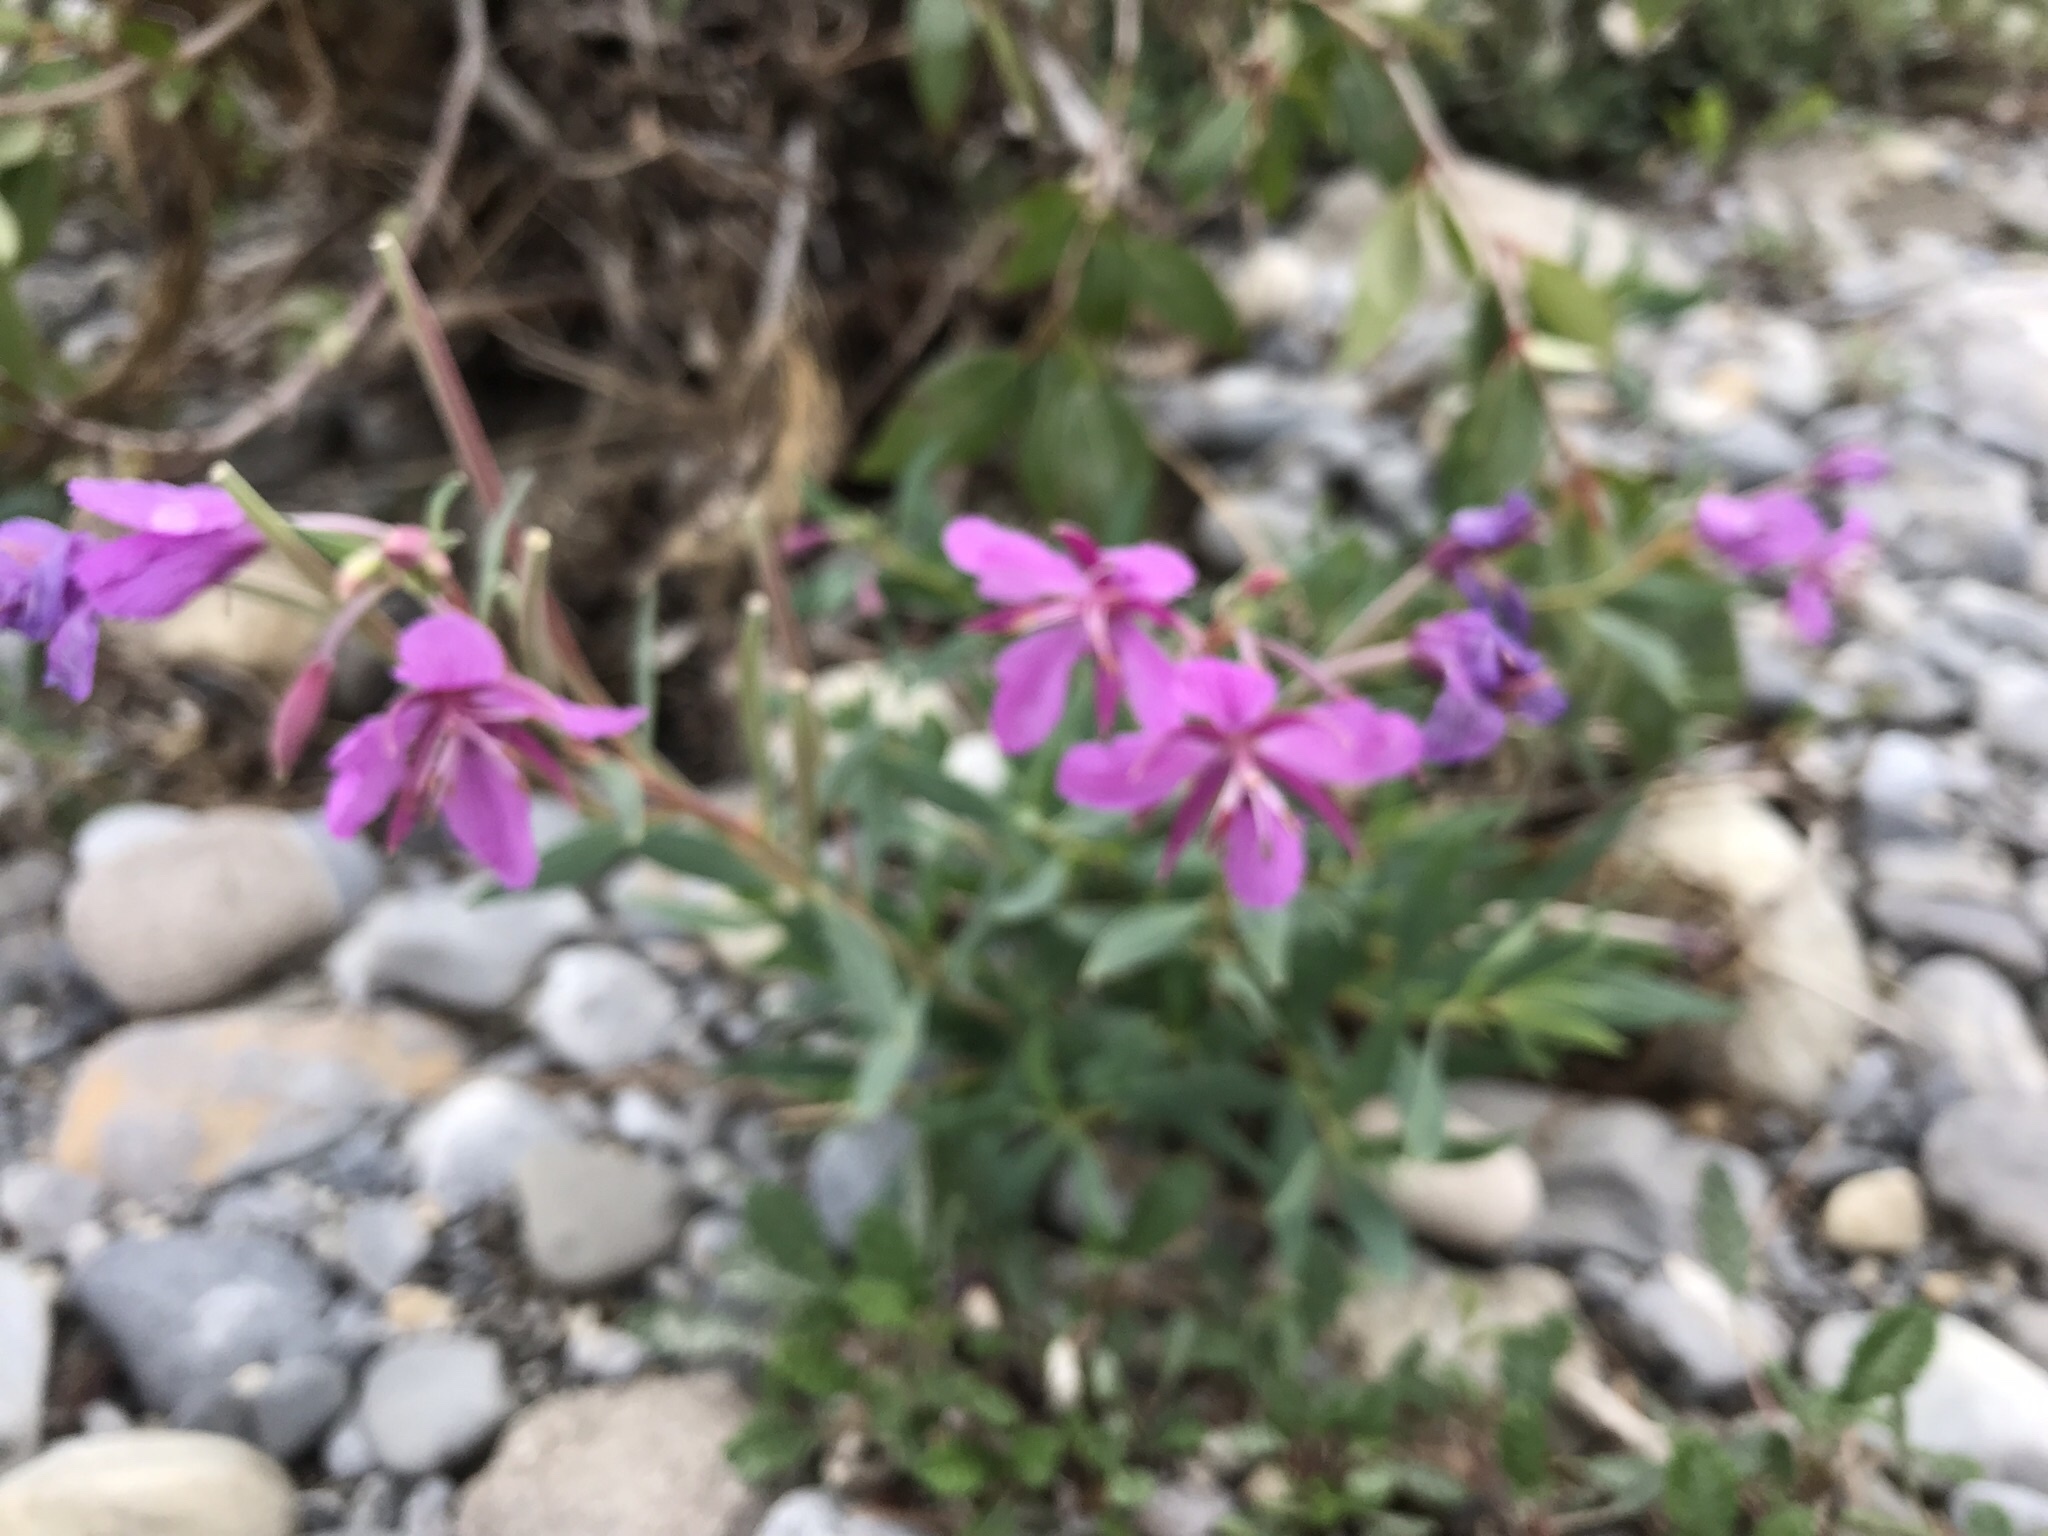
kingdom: Plantae
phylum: Tracheophyta
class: Magnoliopsida
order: Myrtales
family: Onagraceae
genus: Chamaenerion
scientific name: Chamaenerion latifolium
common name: Dwarf fireweed
